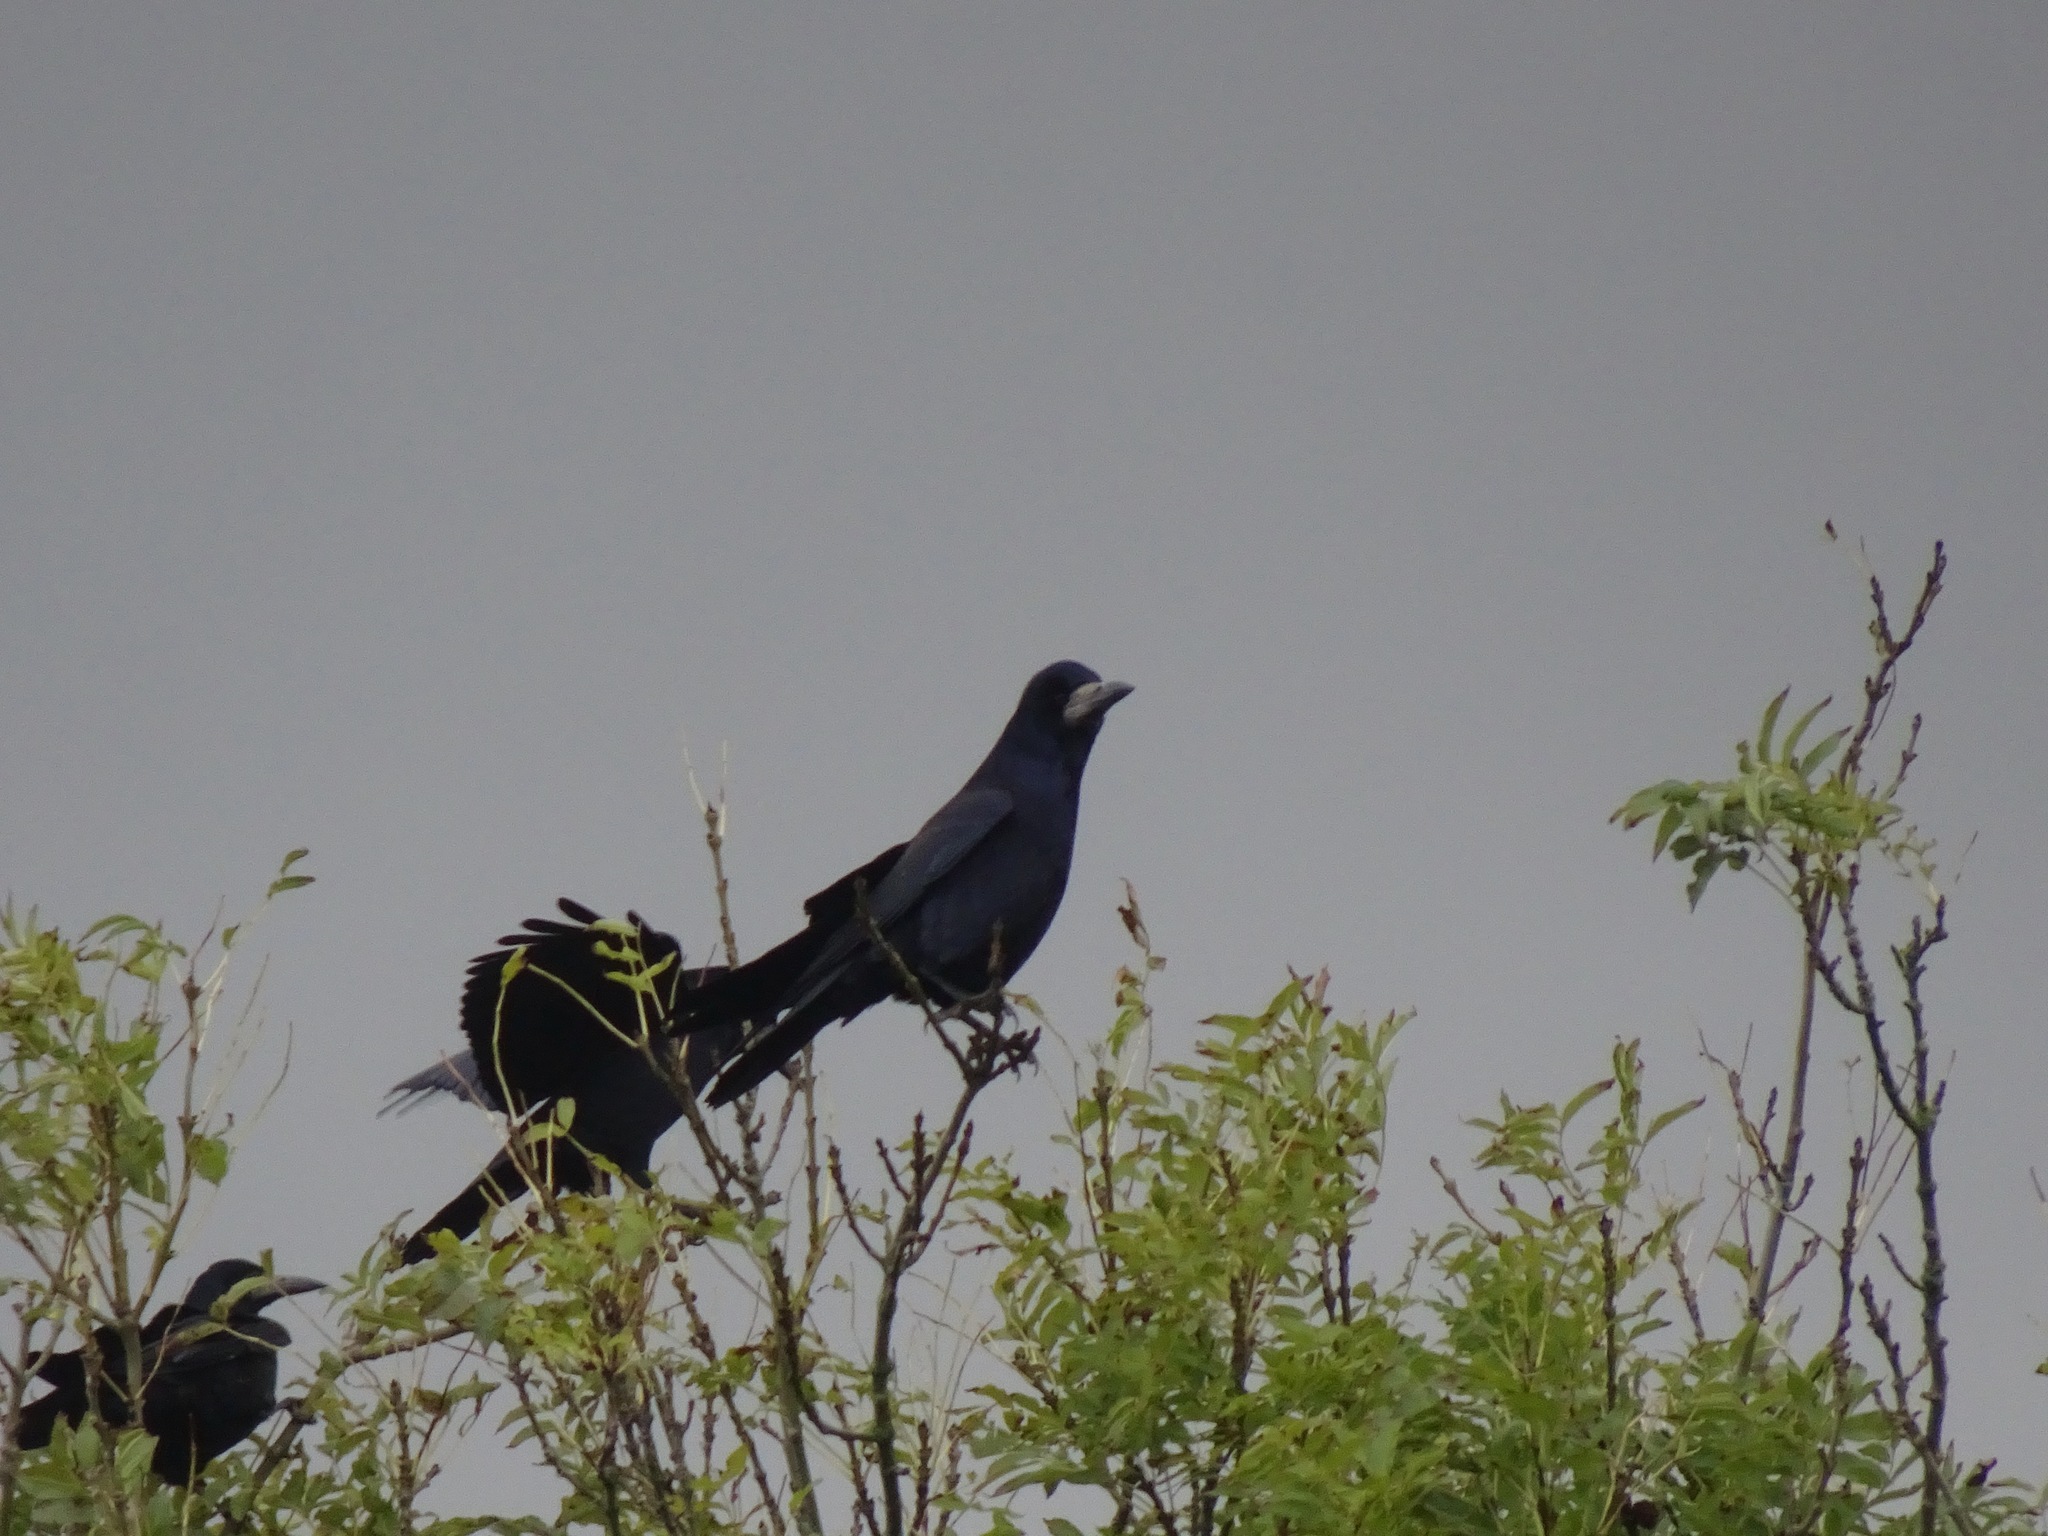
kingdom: Animalia
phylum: Chordata
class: Aves
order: Passeriformes
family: Corvidae
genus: Corvus
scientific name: Corvus frugilegus
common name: Rook
